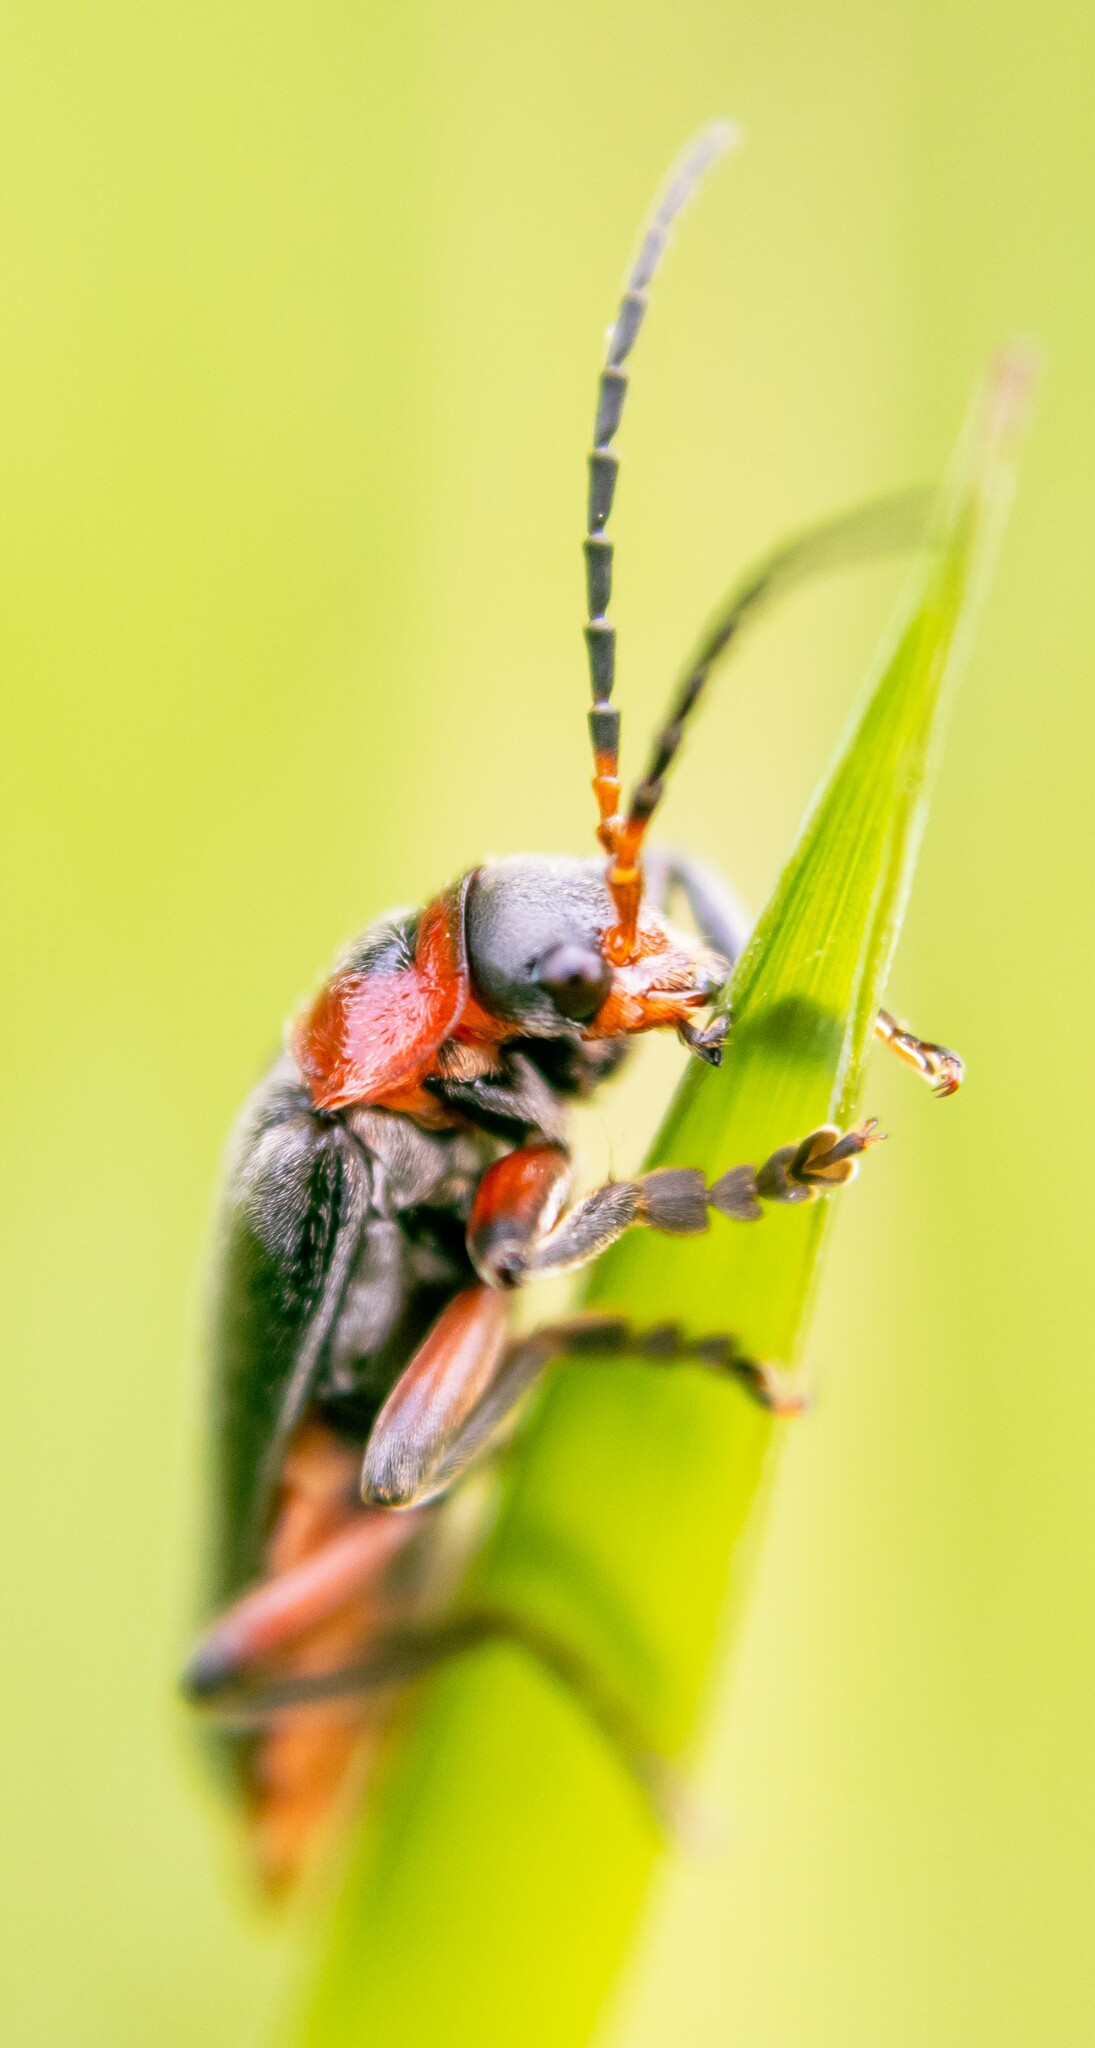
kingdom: Animalia
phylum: Arthropoda
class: Insecta
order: Coleoptera
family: Cantharidae
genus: Cantharis
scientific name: Cantharis rustica
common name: Soldier beetle
